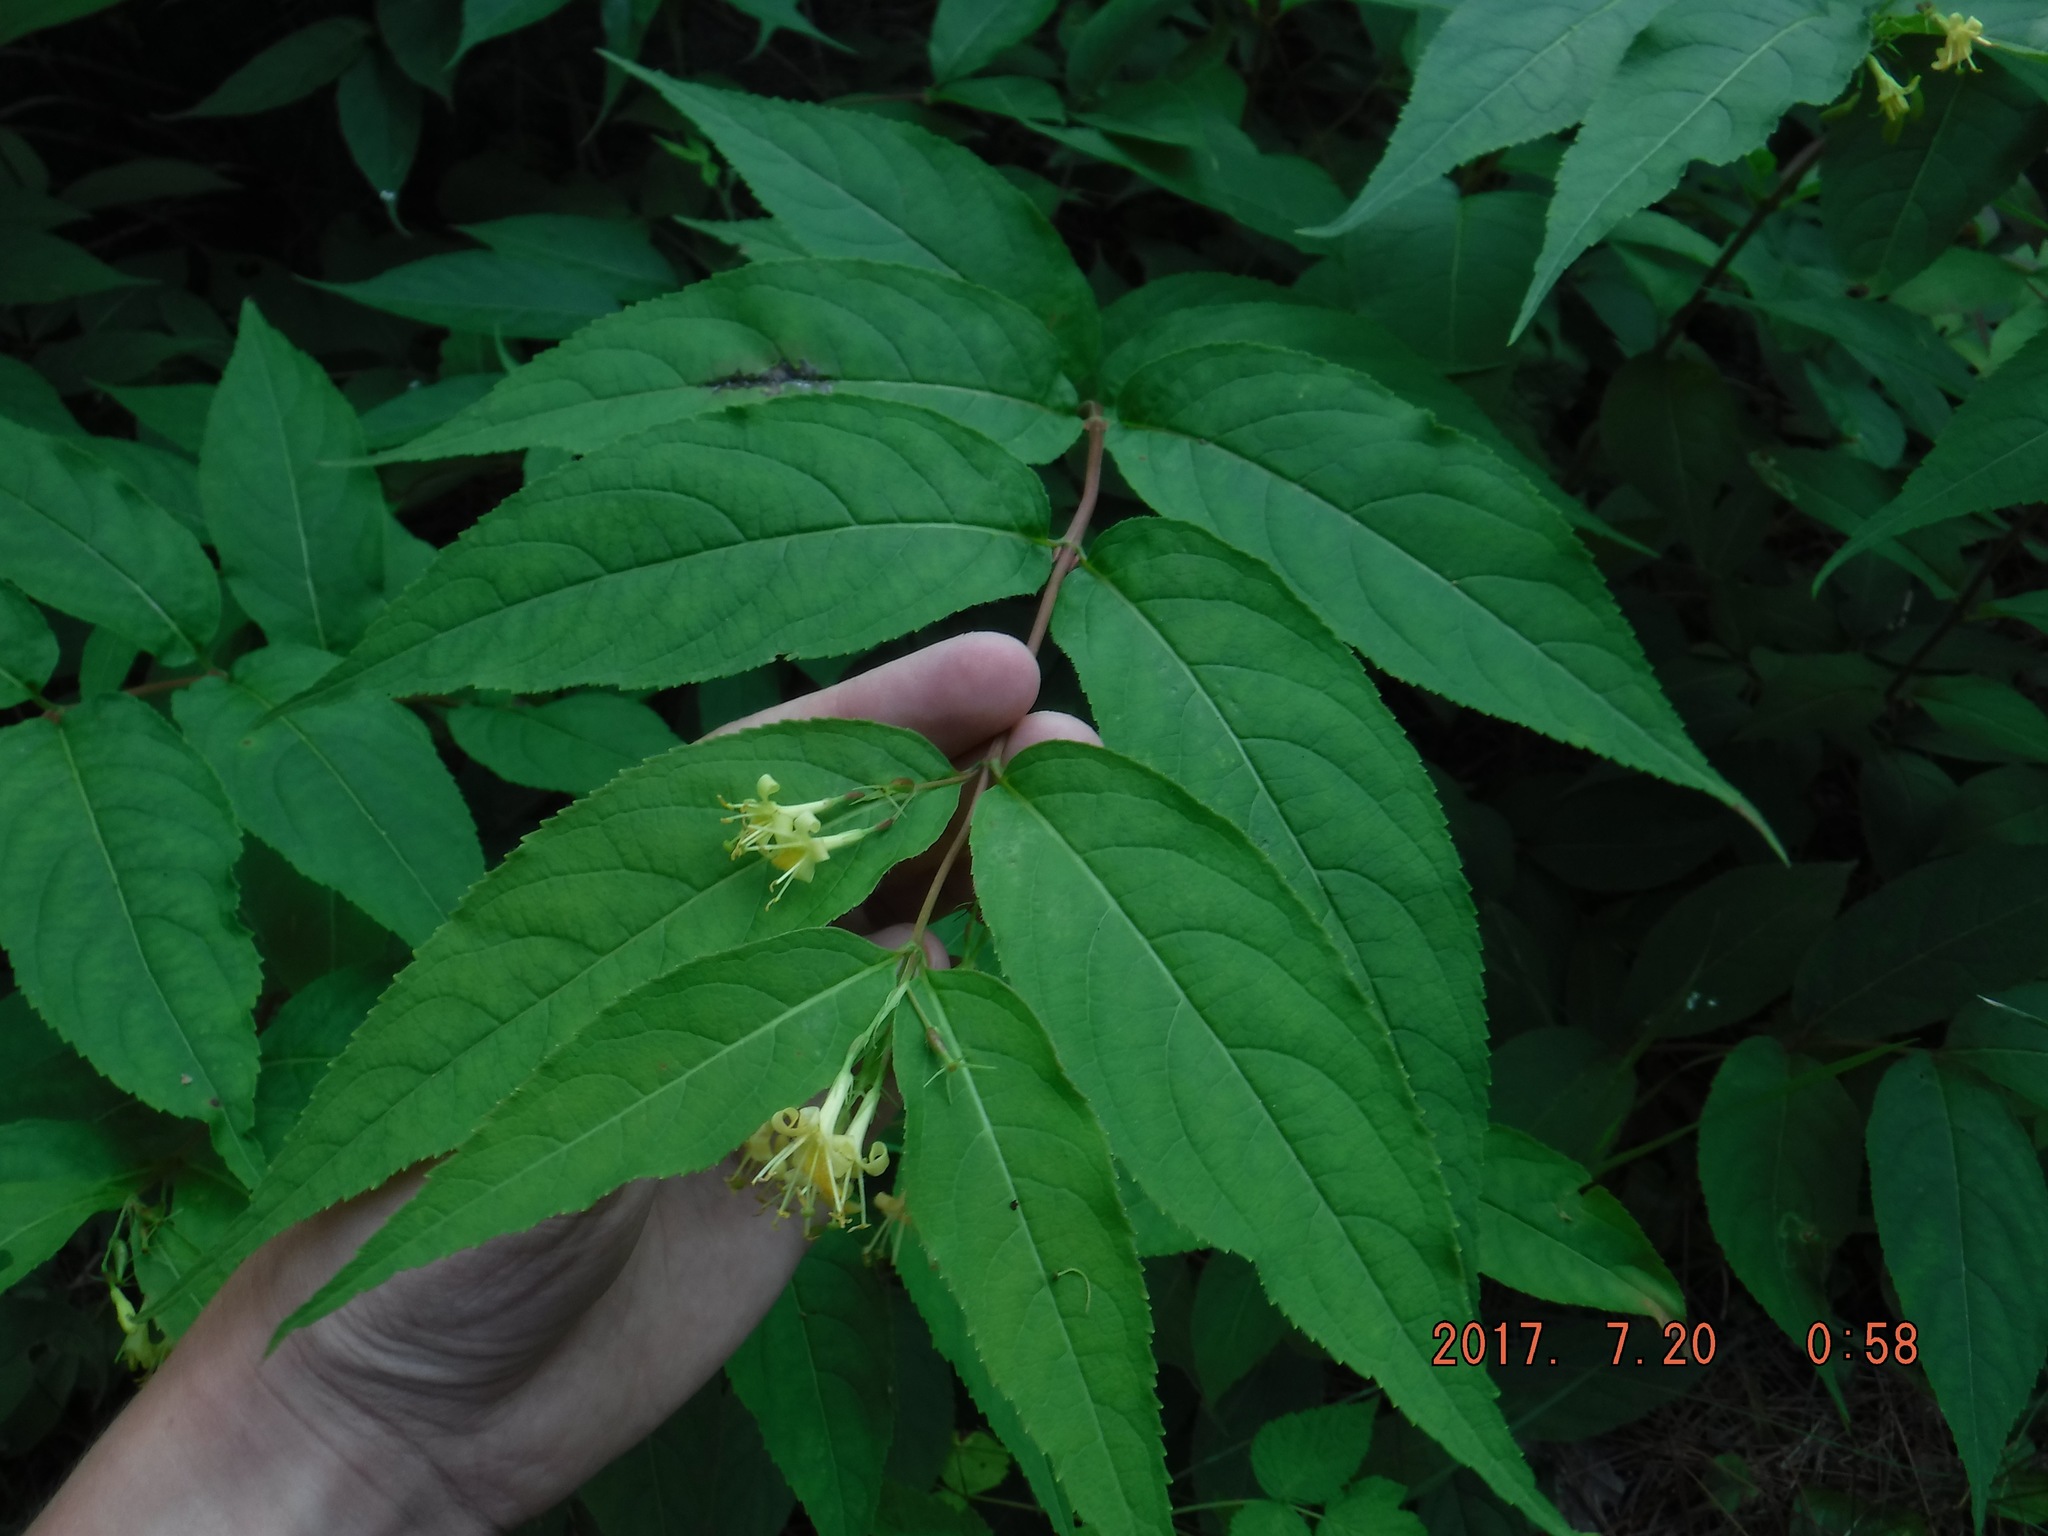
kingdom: Plantae
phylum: Tracheophyta
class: Magnoliopsida
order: Dipsacales
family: Caprifoliaceae
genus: Diervilla
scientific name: Diervilla lonicera
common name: Bush-honeysuckle
